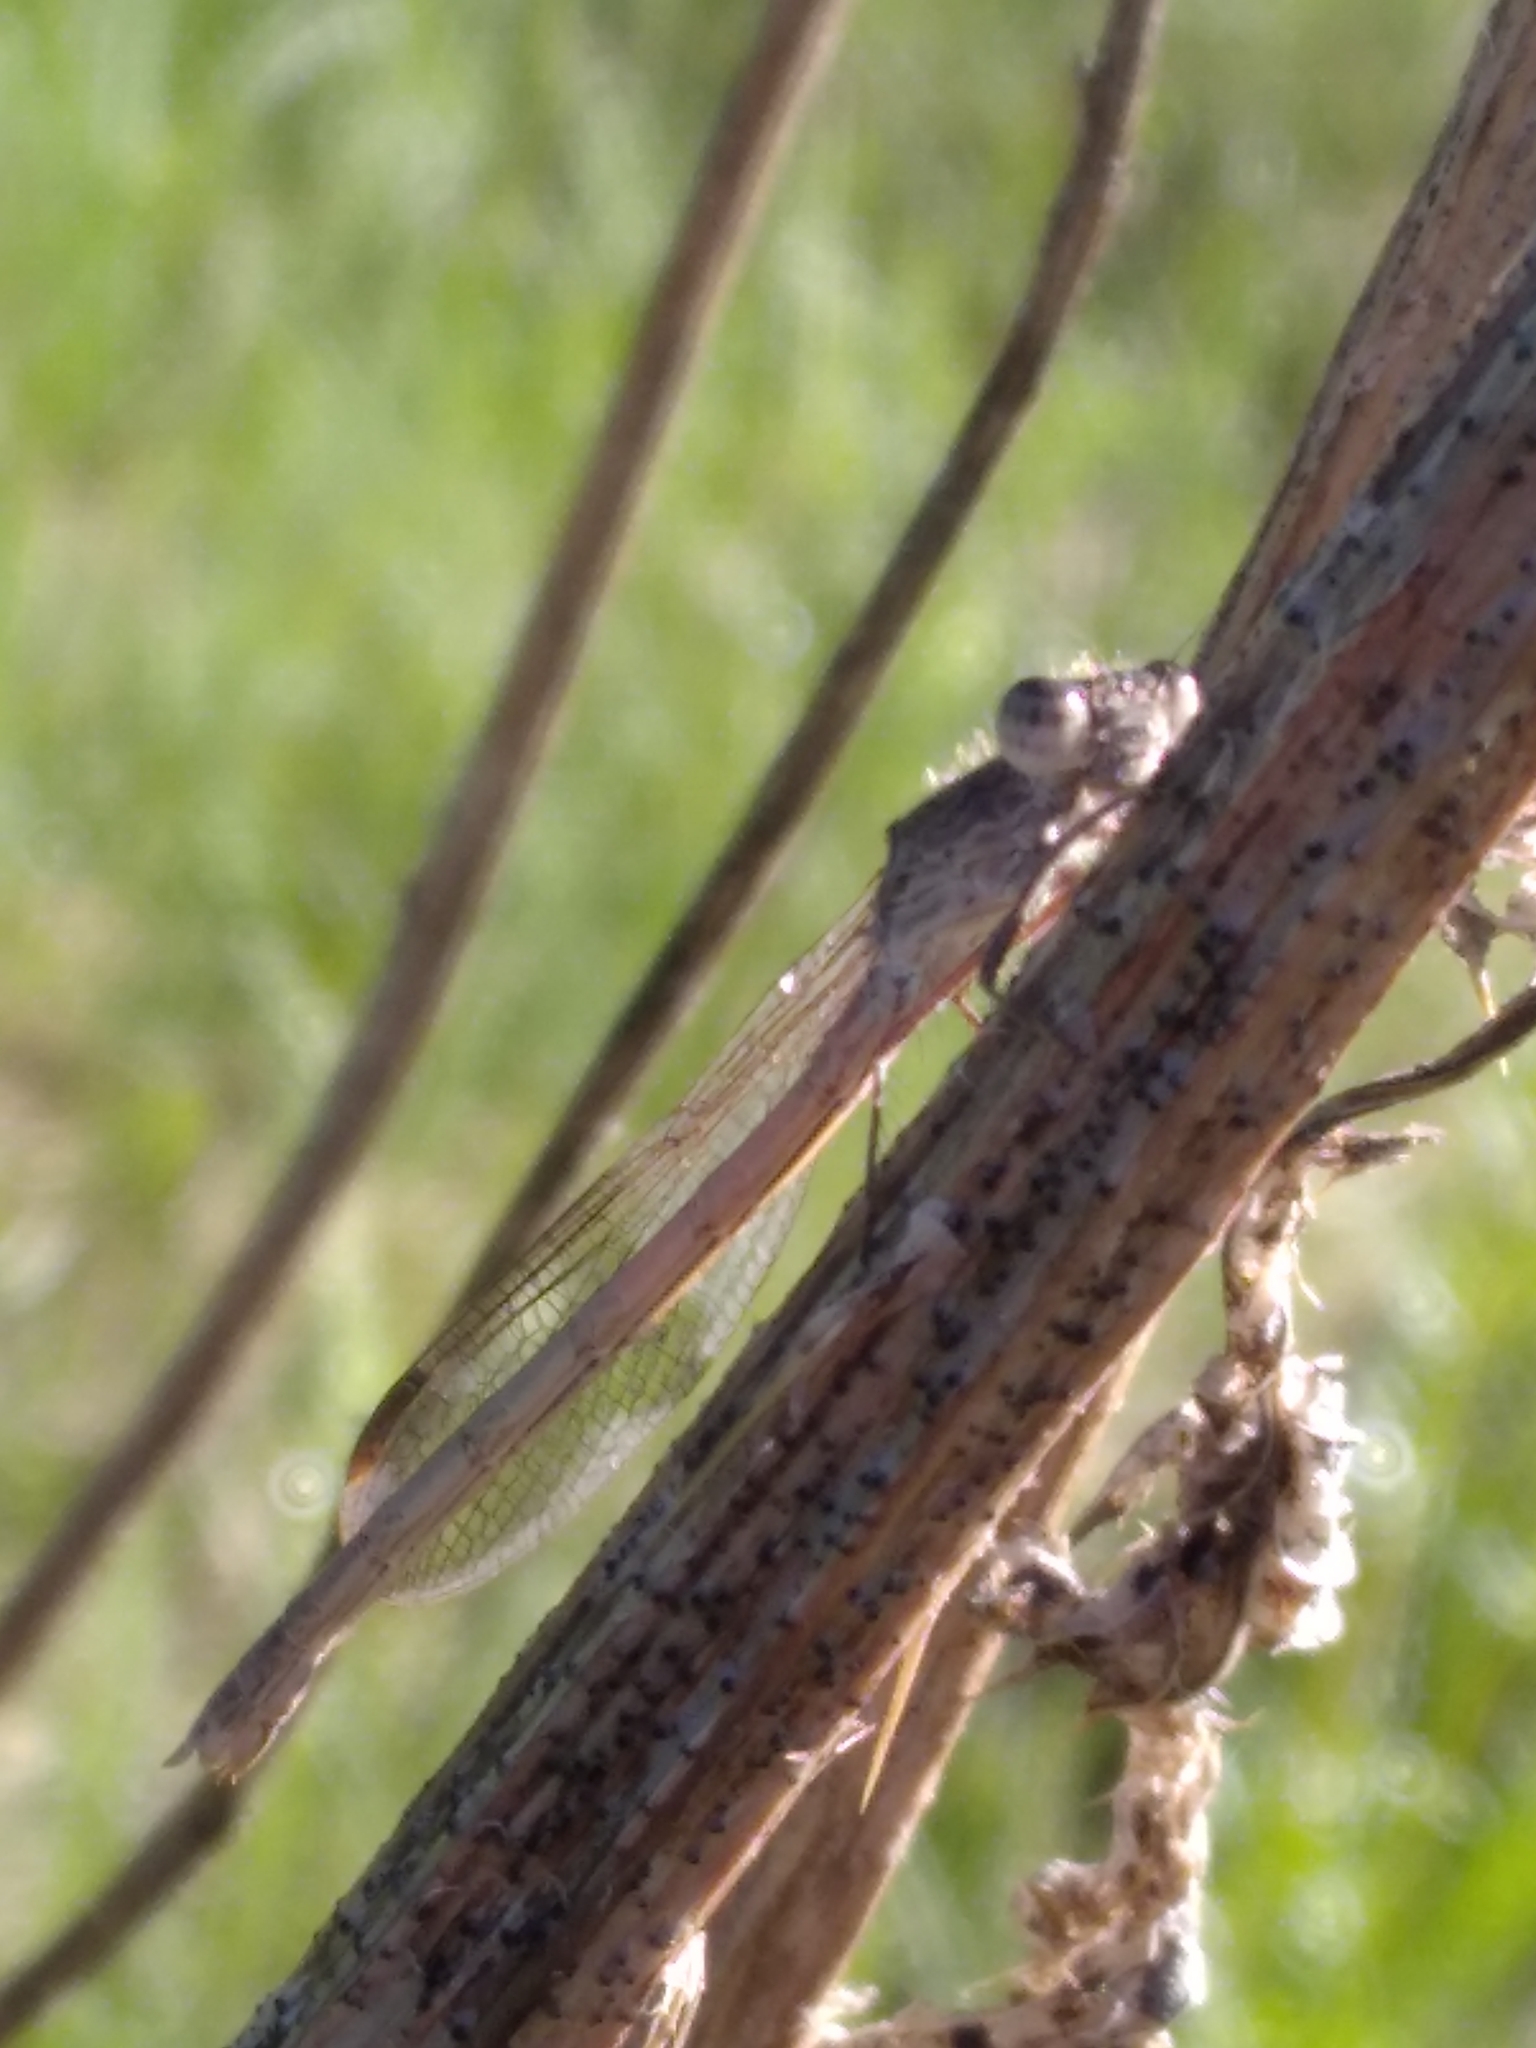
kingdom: Animalia
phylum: Arthropoda
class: Insecta
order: Odonata
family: Lestidae
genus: Sympecma
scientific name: Sympecma paedisca
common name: Siberian winter damsel
